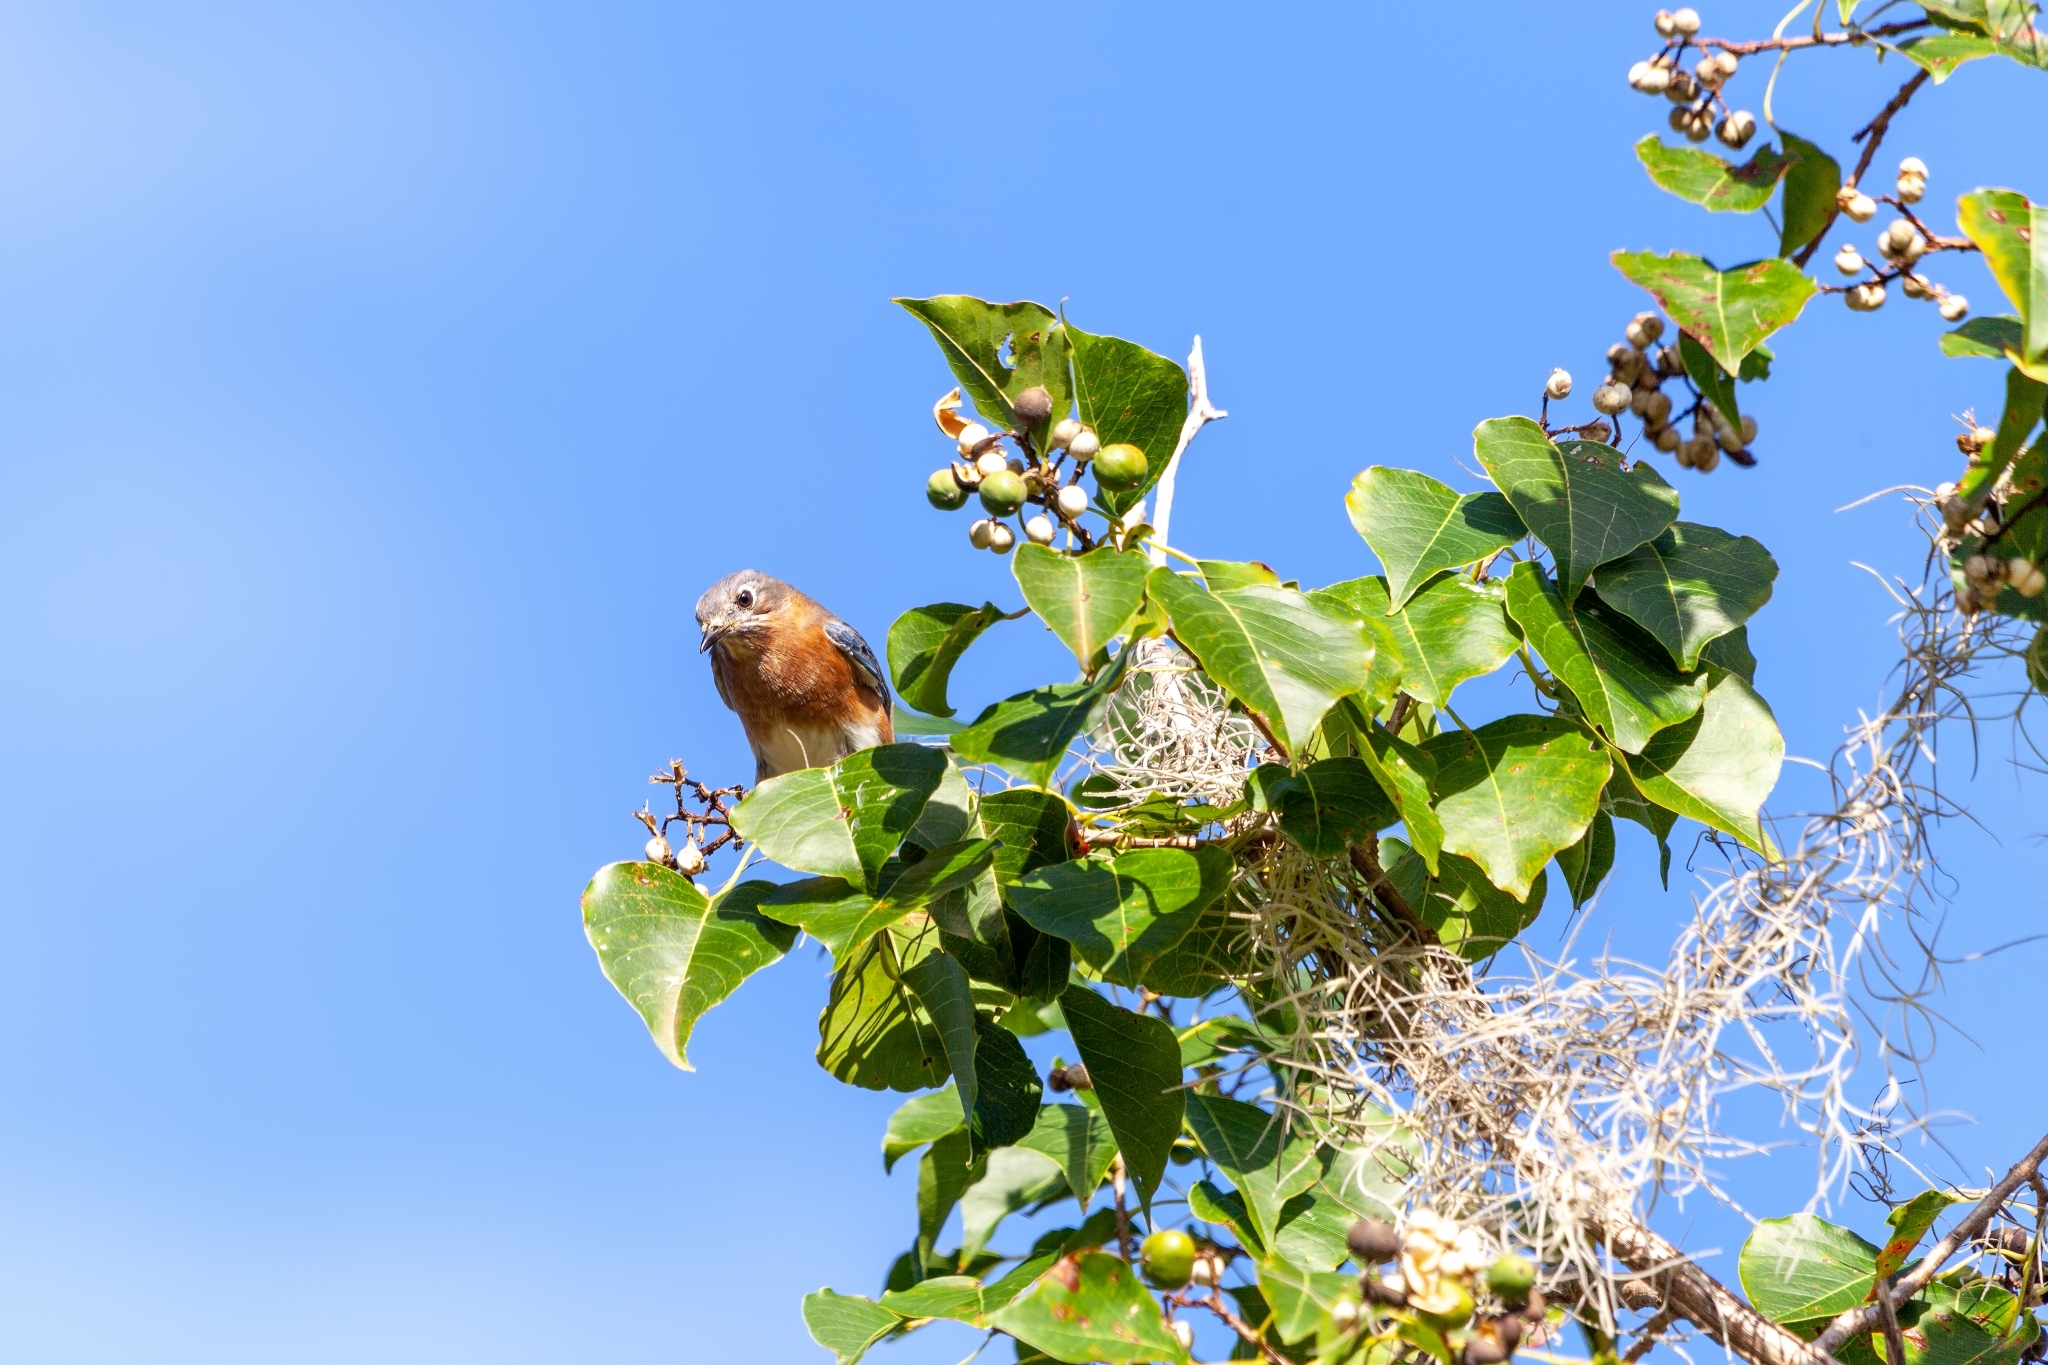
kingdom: Animalia
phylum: Chordata
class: Aves
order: Passeriformes
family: Turdidae
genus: Sialia
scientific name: Sialia sialis
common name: Eastern bluebird
